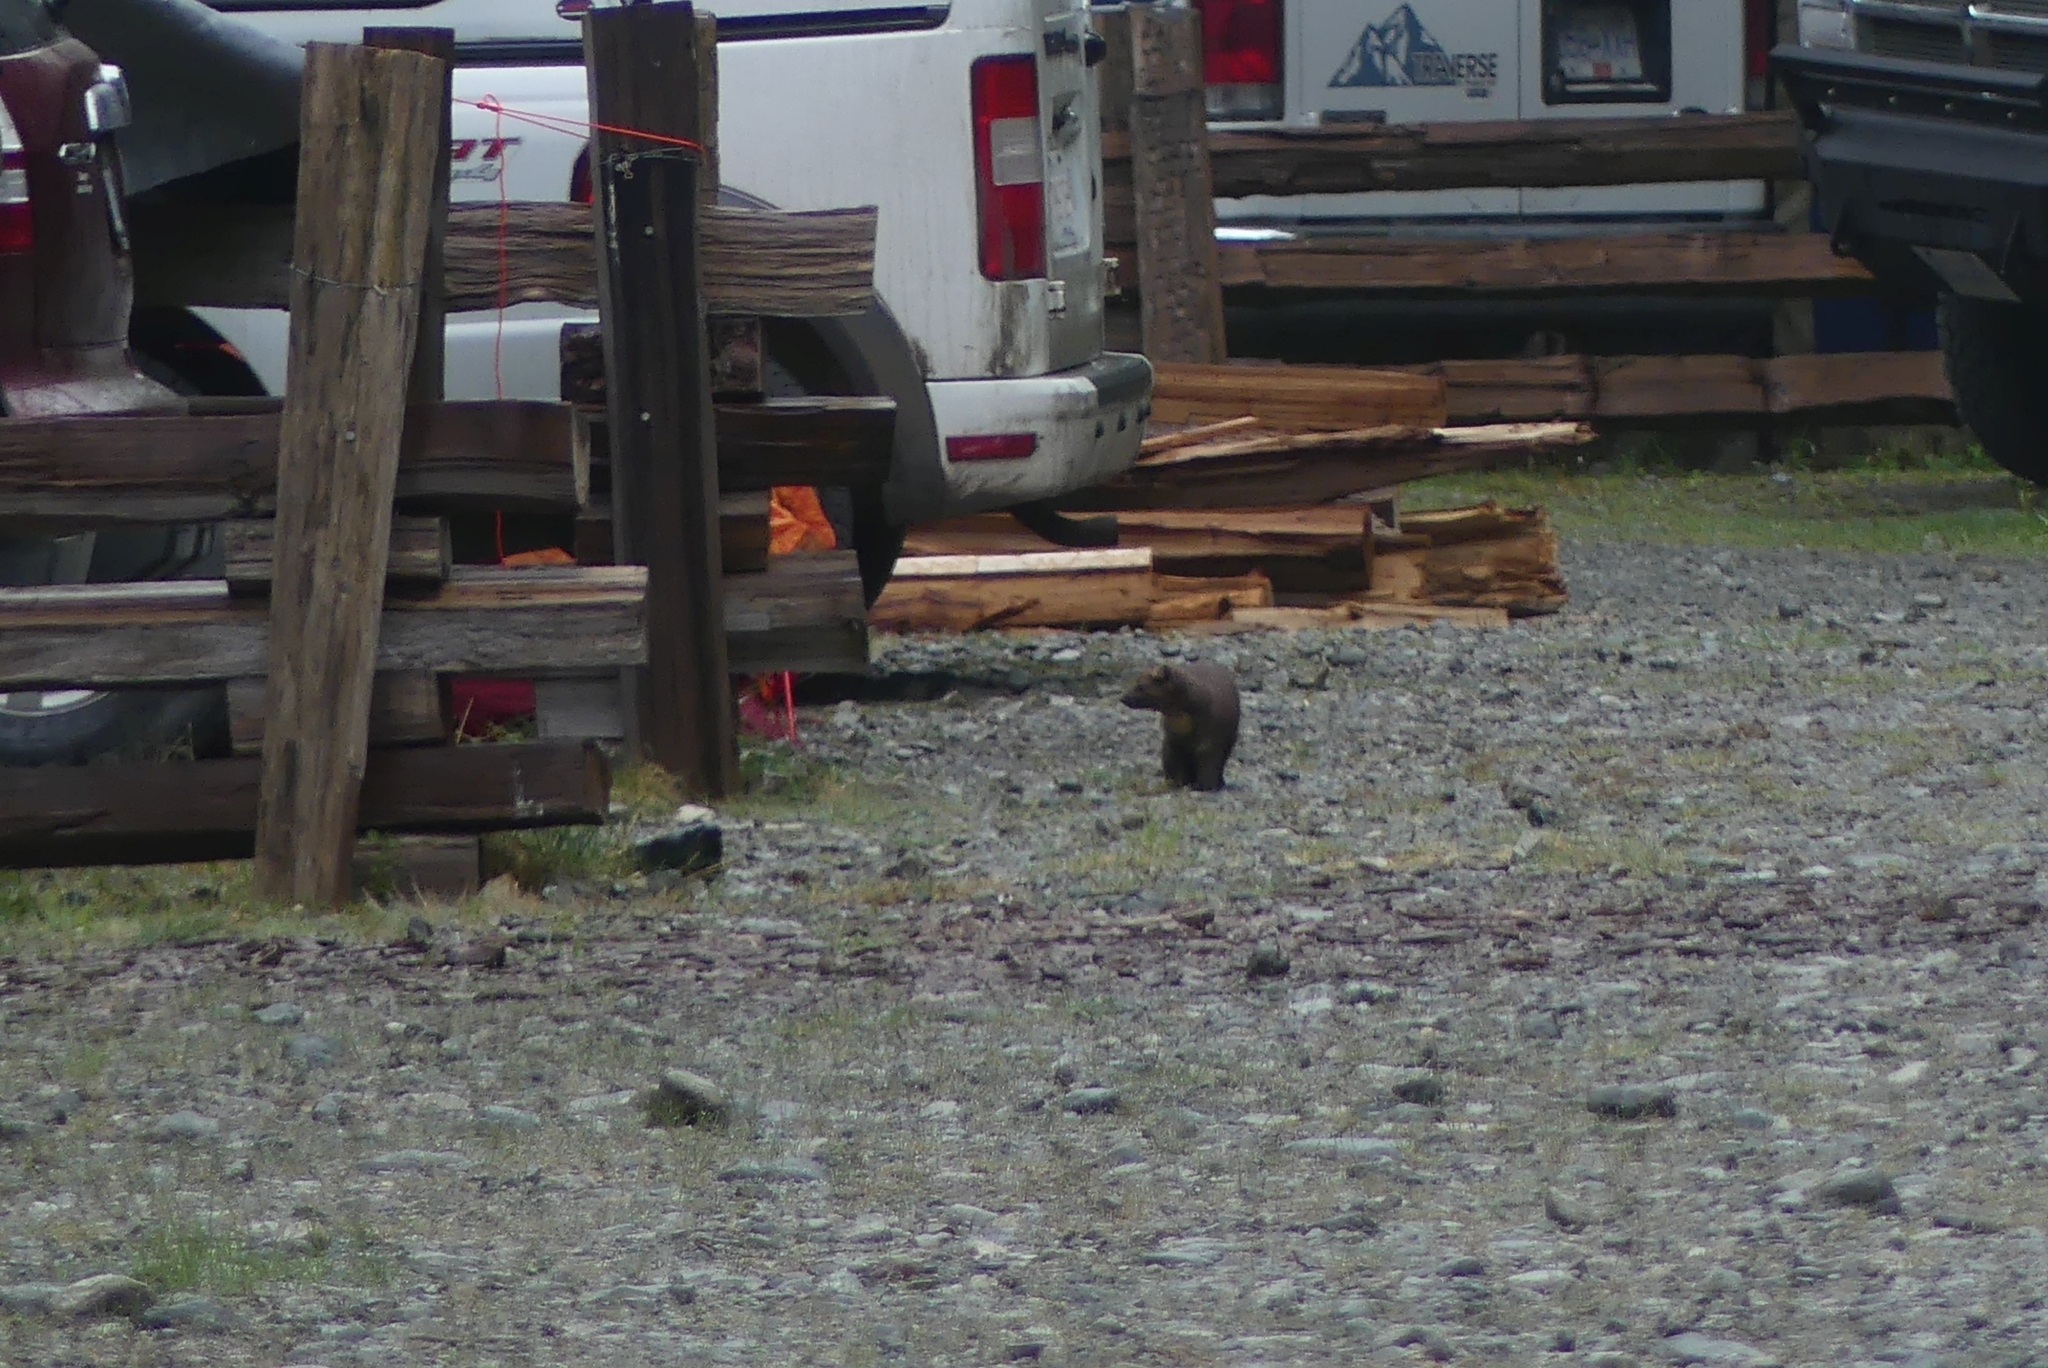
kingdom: Animalia
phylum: Chordata
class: Mammalia
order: Carnivora
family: Mustelidae
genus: Martes
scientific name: Martes caurina
